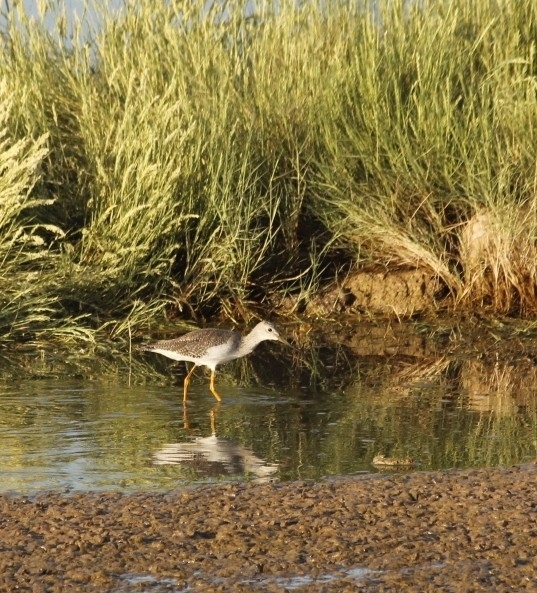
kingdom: Animalia
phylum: Chordata
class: Aves
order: Charadriiformes
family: Scolopacidae
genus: Tringa
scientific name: Tringa melanoleuca
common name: Greater yellowlegs
